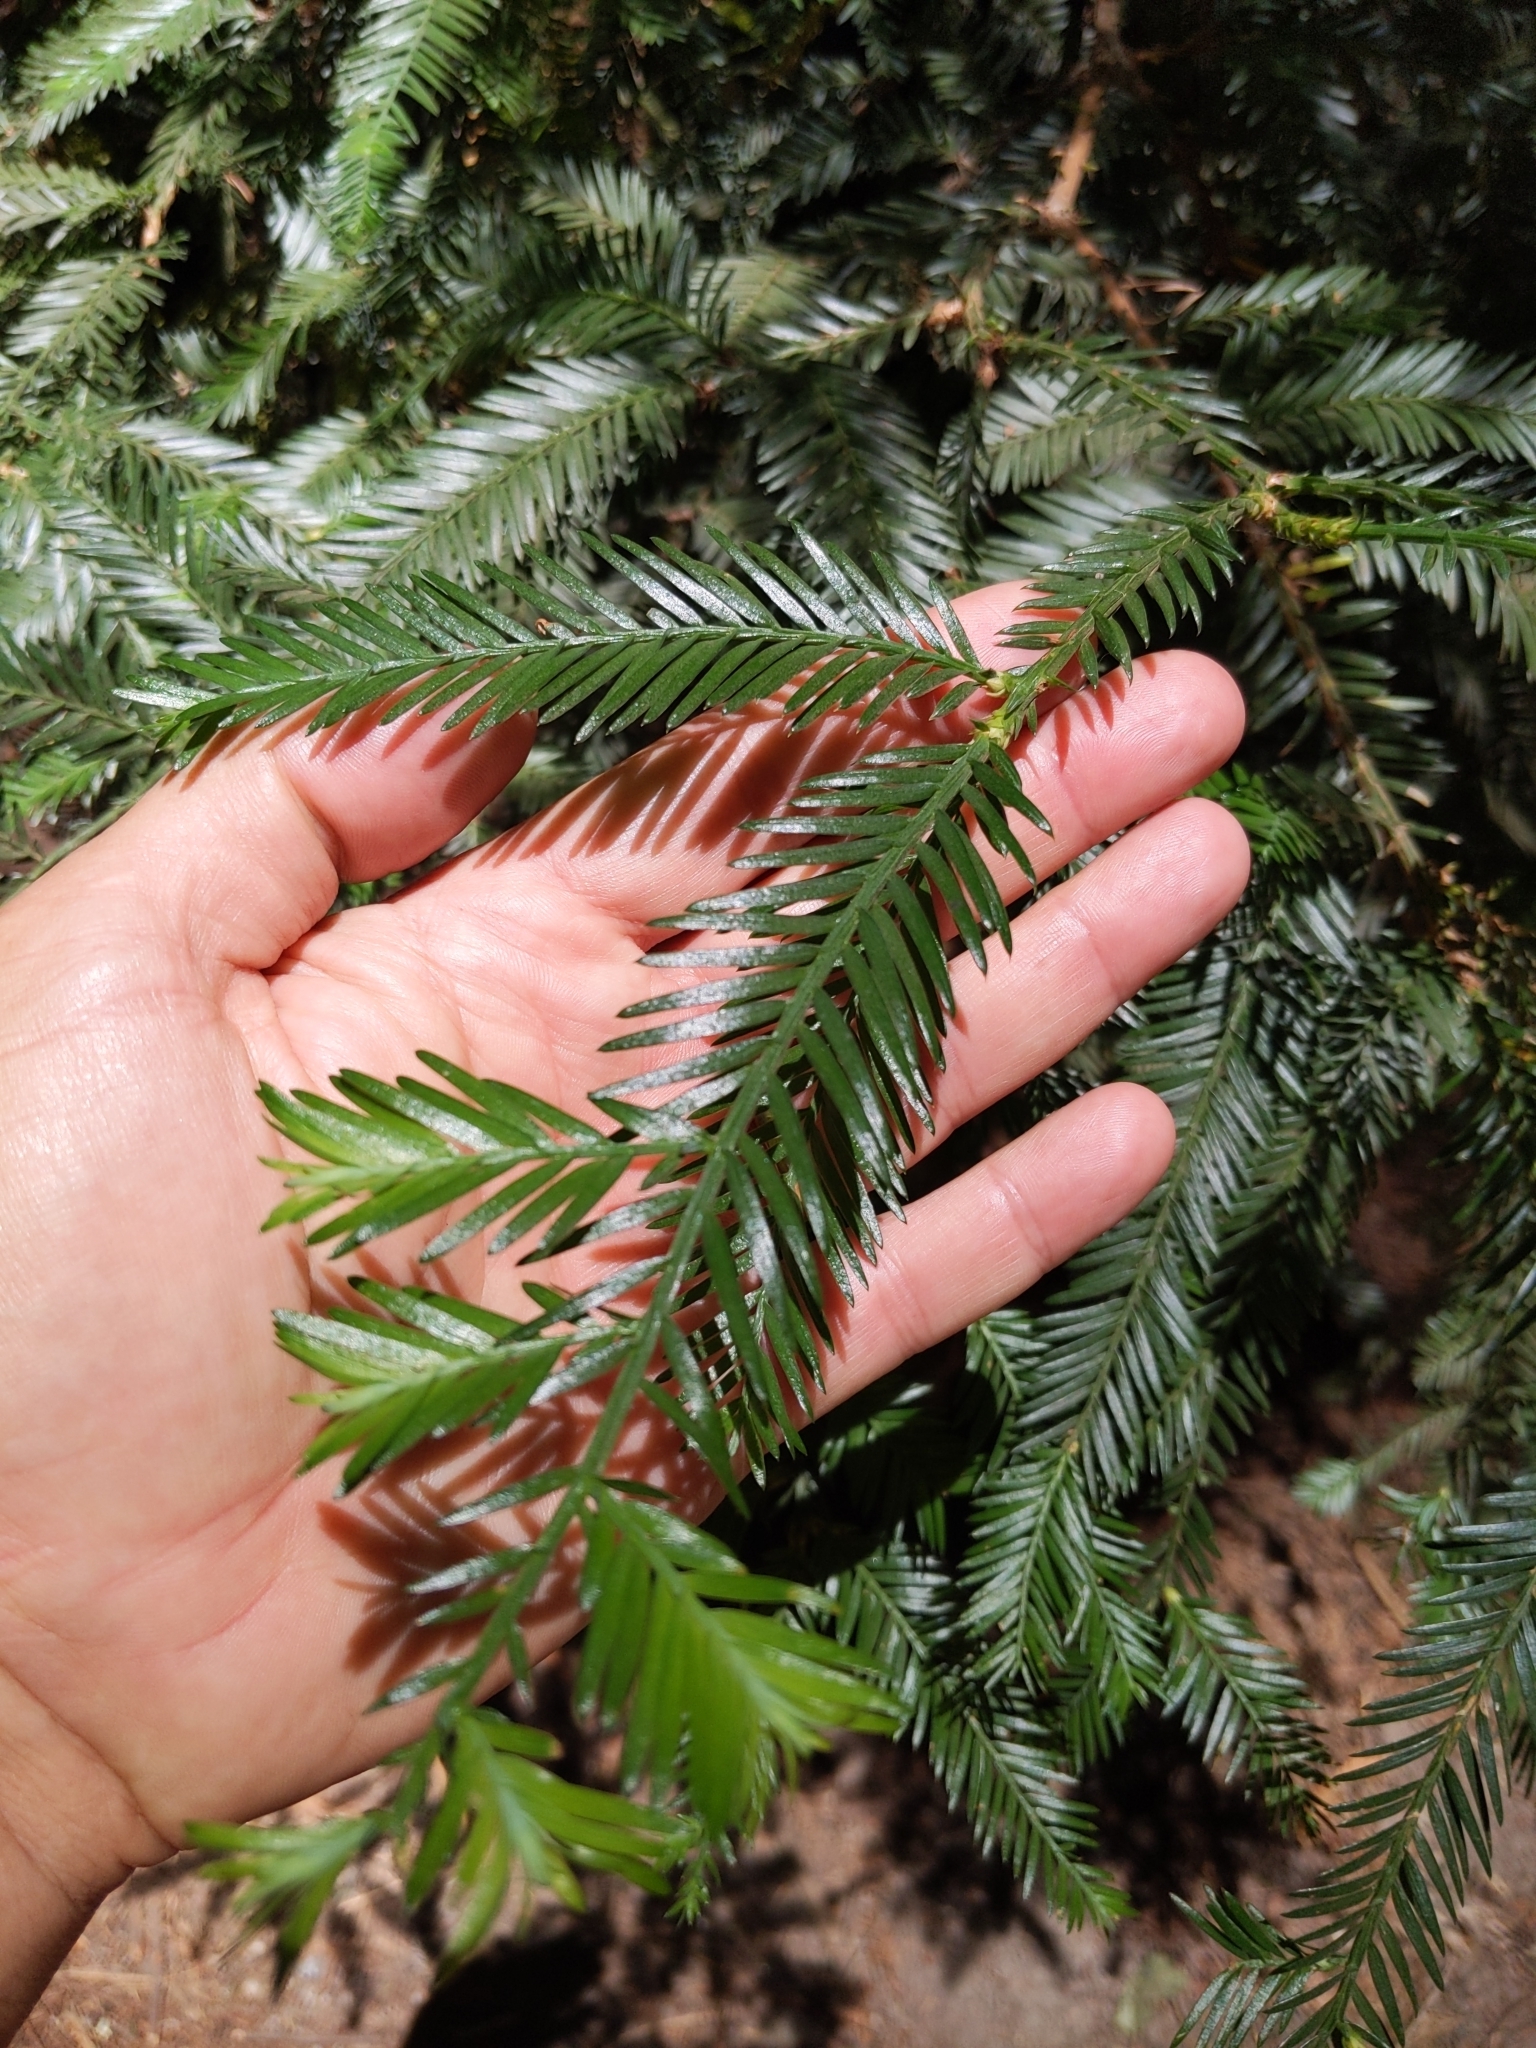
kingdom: Plantae
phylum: Tracheophyta
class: Pinopsida
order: Pinales
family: Cupressaceae
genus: Sequoia
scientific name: Sequoia sempervirens
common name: Coast redwood
